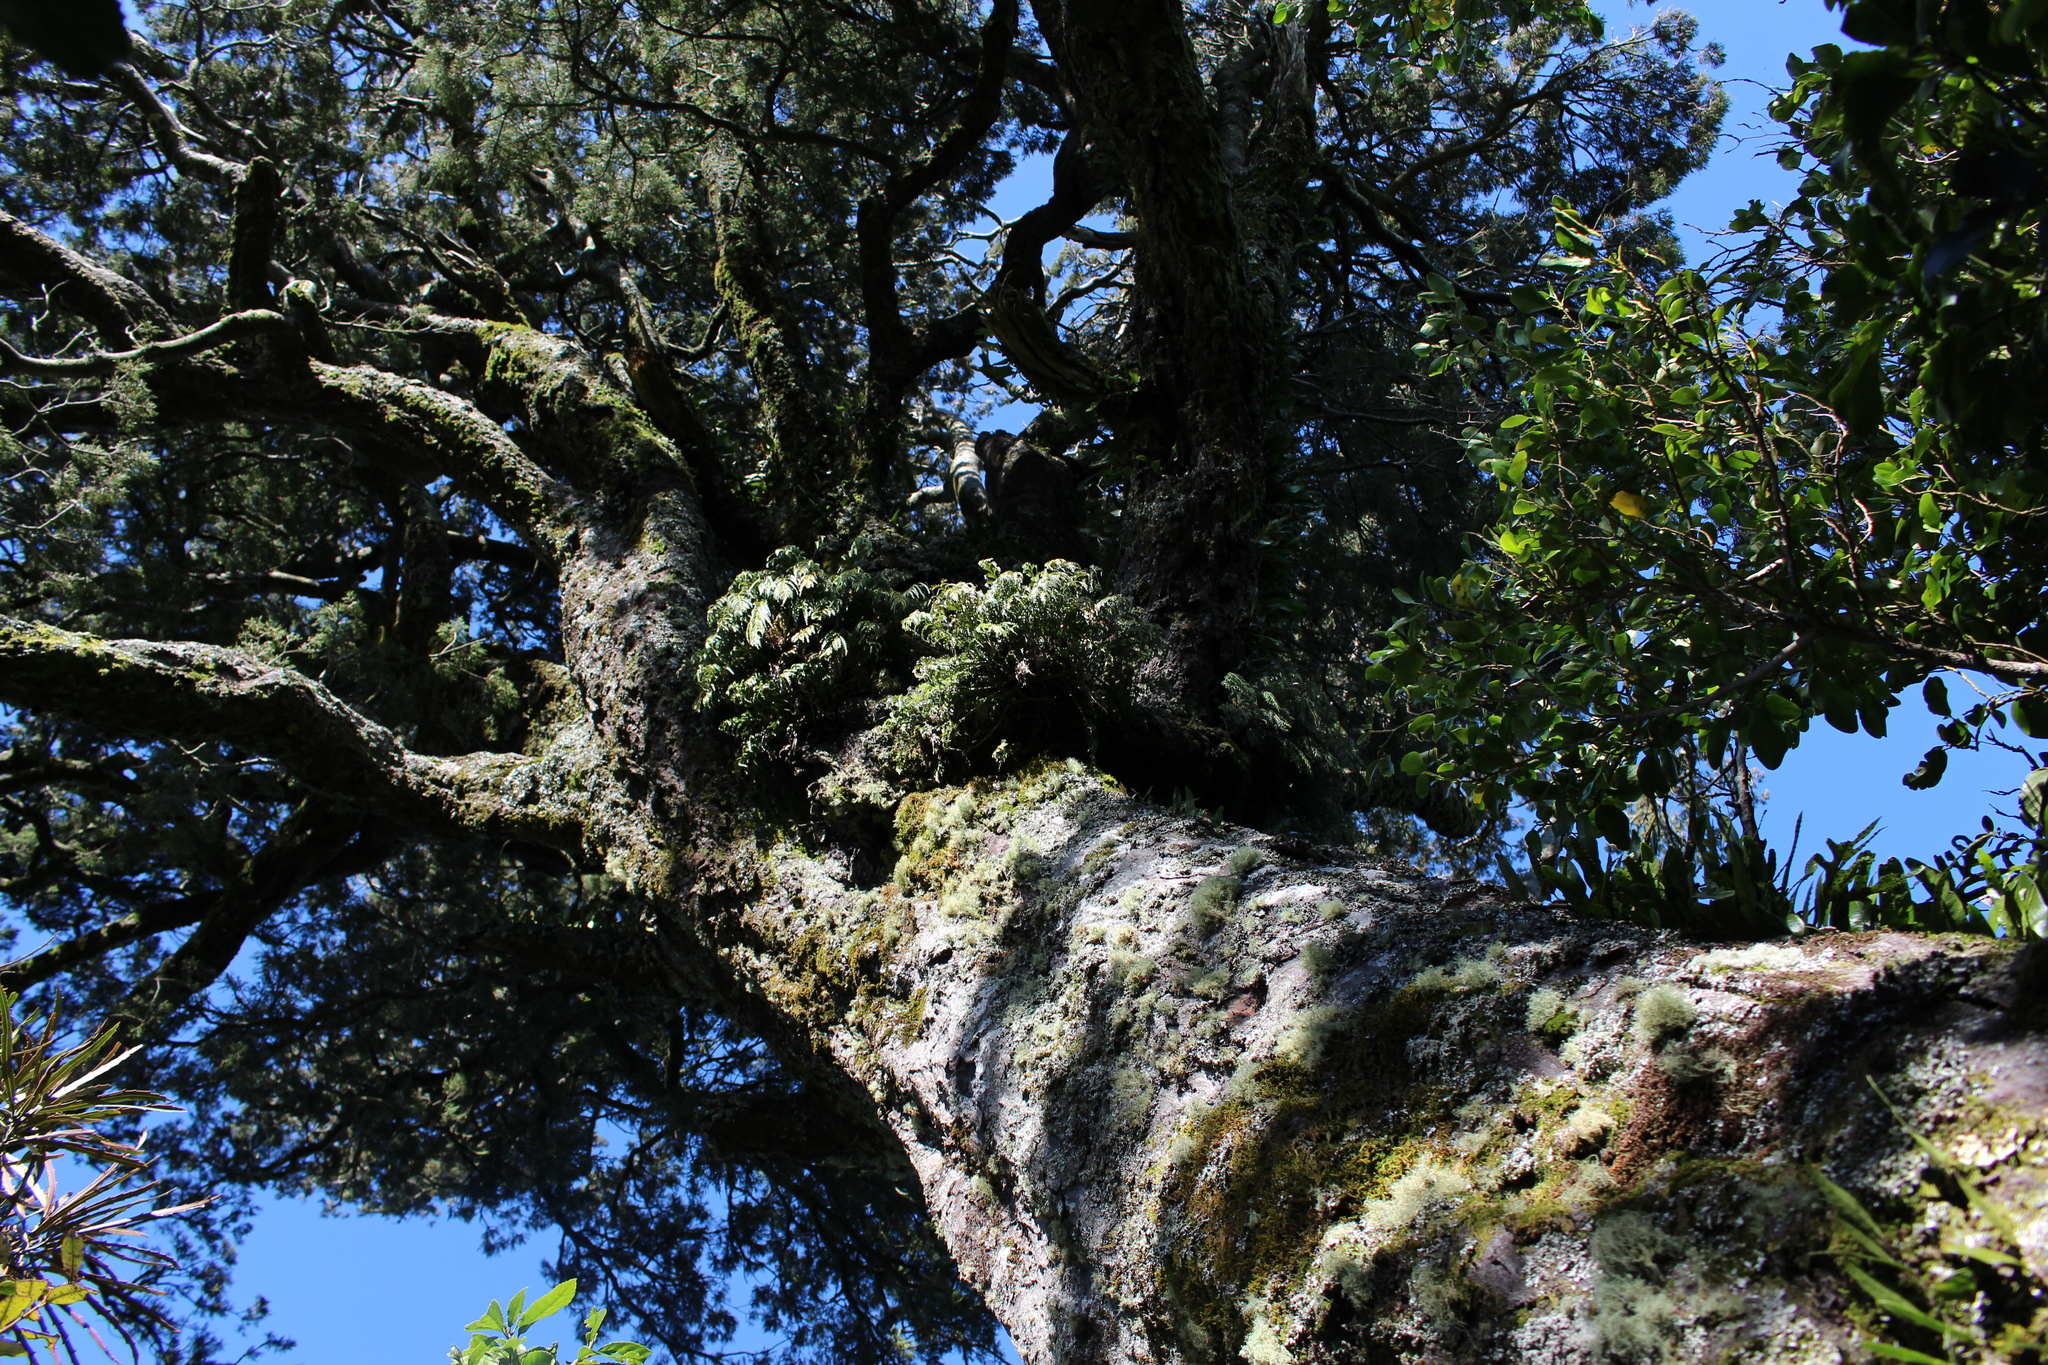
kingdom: Plantae
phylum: Tracheophyta
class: Pinopsida
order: Pinales
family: Podocarpaceae
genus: Prumnopitys
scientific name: Prumnopitys taxifolia
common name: Matai
